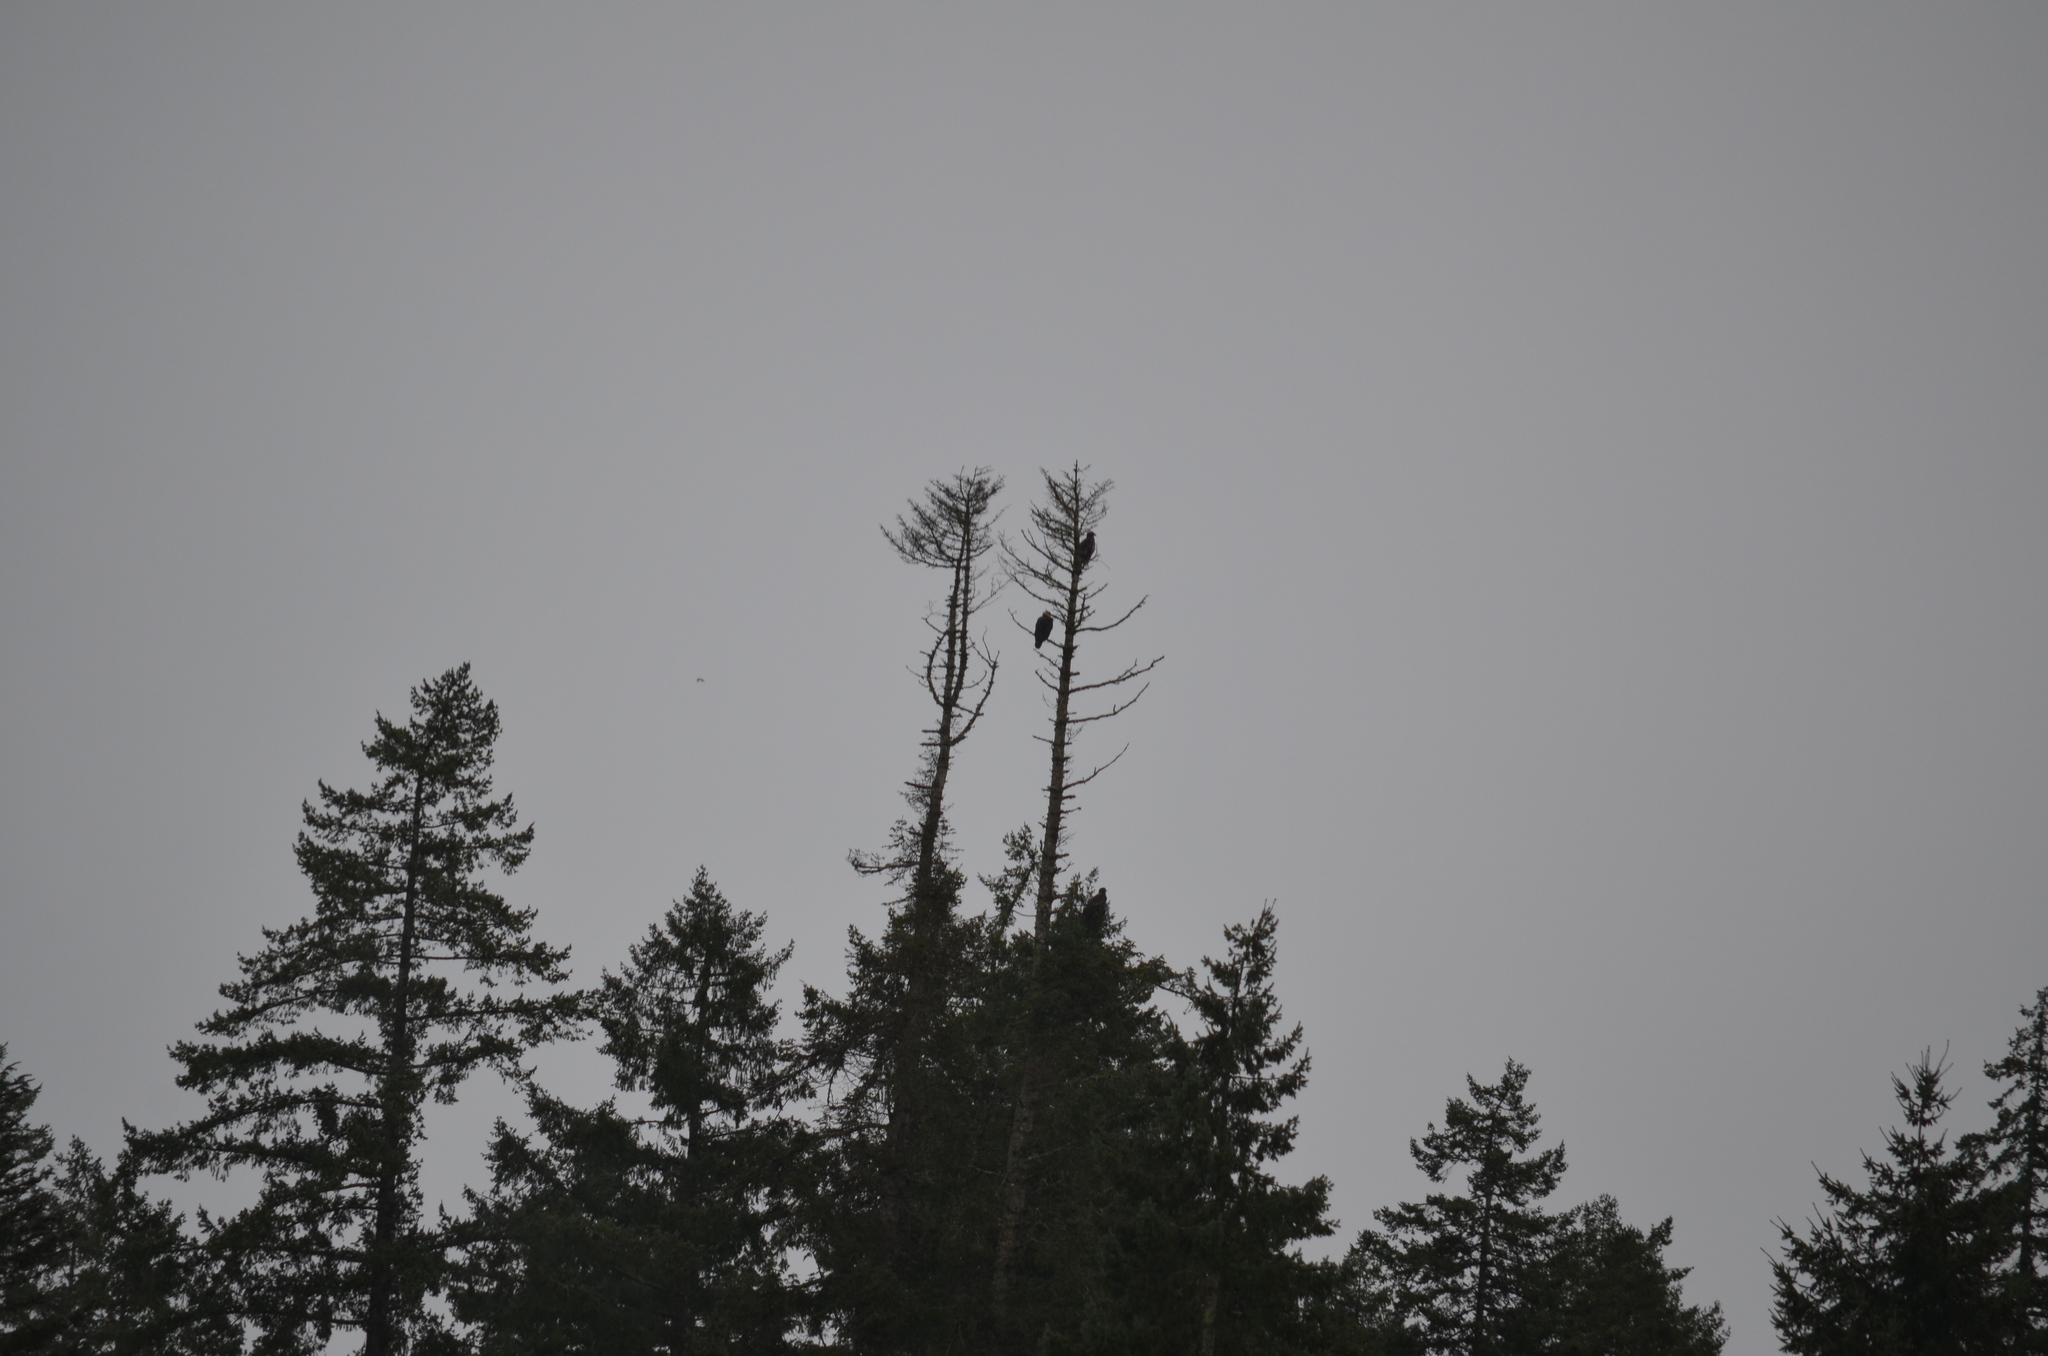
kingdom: Animalia
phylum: Chordata
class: Aves
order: Accipitriformes
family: Accipitridae
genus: Haliaeetus
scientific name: Haliaeetus leucocephalus
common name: Bald eagle
